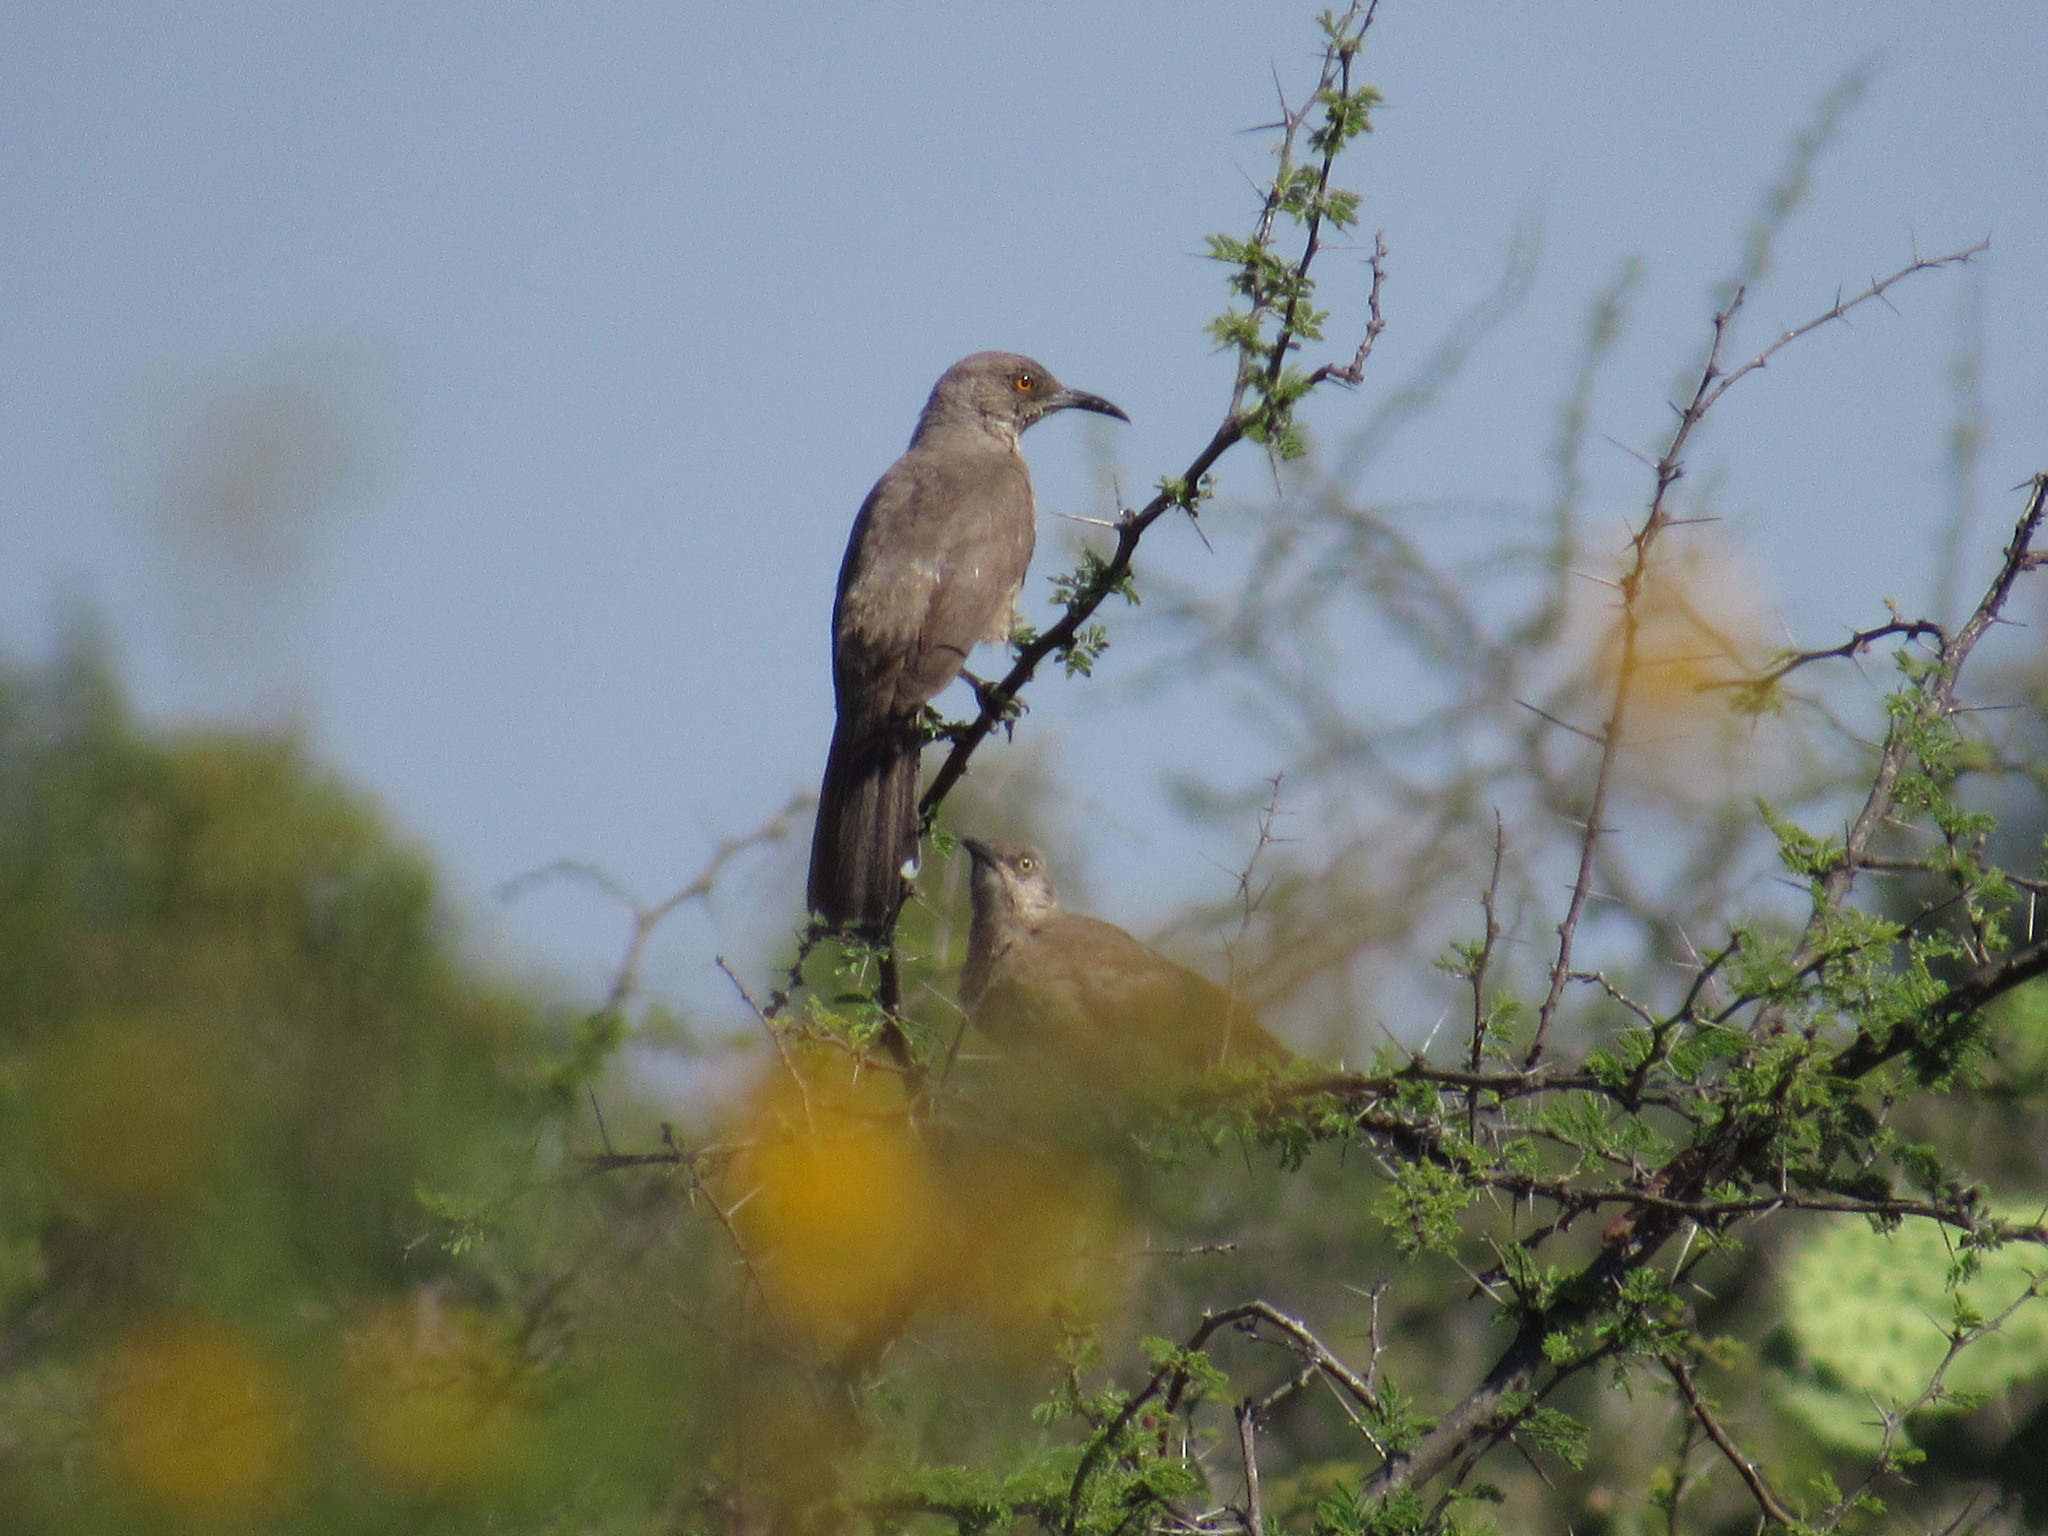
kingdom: Animalia
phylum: Chordata
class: Aves
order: Passeriformes
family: Mimidae
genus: Toxostoma
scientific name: Toxostoma curvirostre
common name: Curve-billed thrasher
